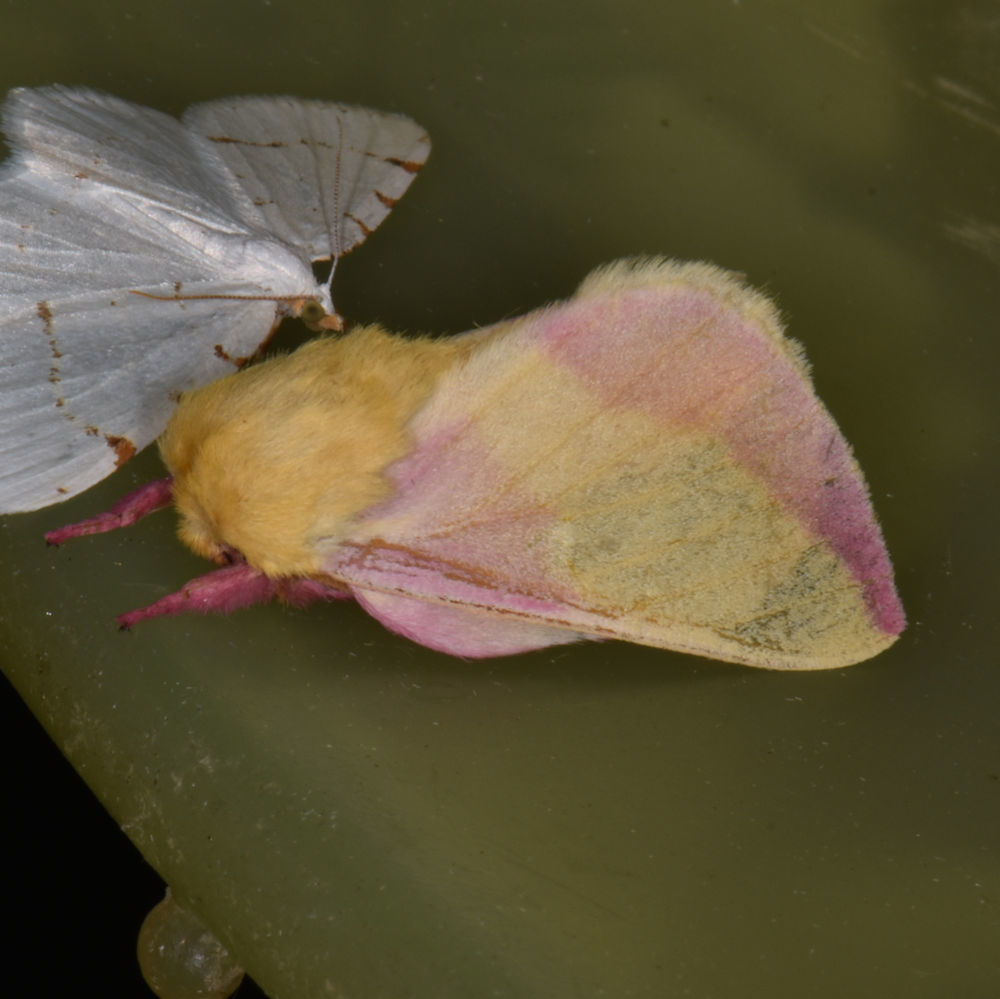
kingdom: Animalia
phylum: Arthropoda
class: Insecta
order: Lepidoptera
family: Saturniidae
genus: Dryocampa
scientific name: Dryocampa rubicunda
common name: Rosy maple moth
